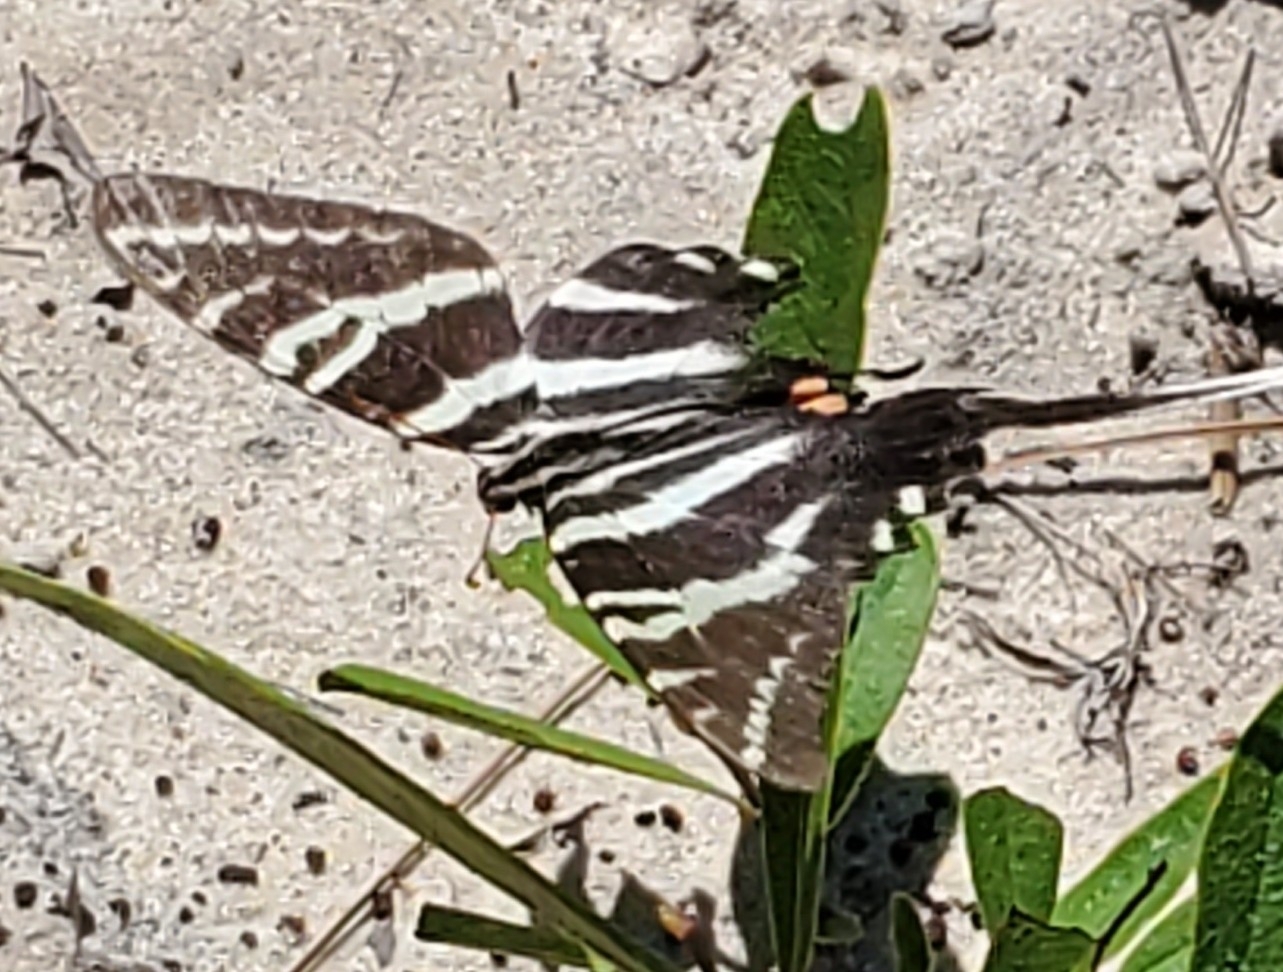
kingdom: Animalia
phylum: Arthropoda
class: Insecta
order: Lepidoptera
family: Papilionidae
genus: Protographium
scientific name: Protographium marcellus
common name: Zebra swallowtail
